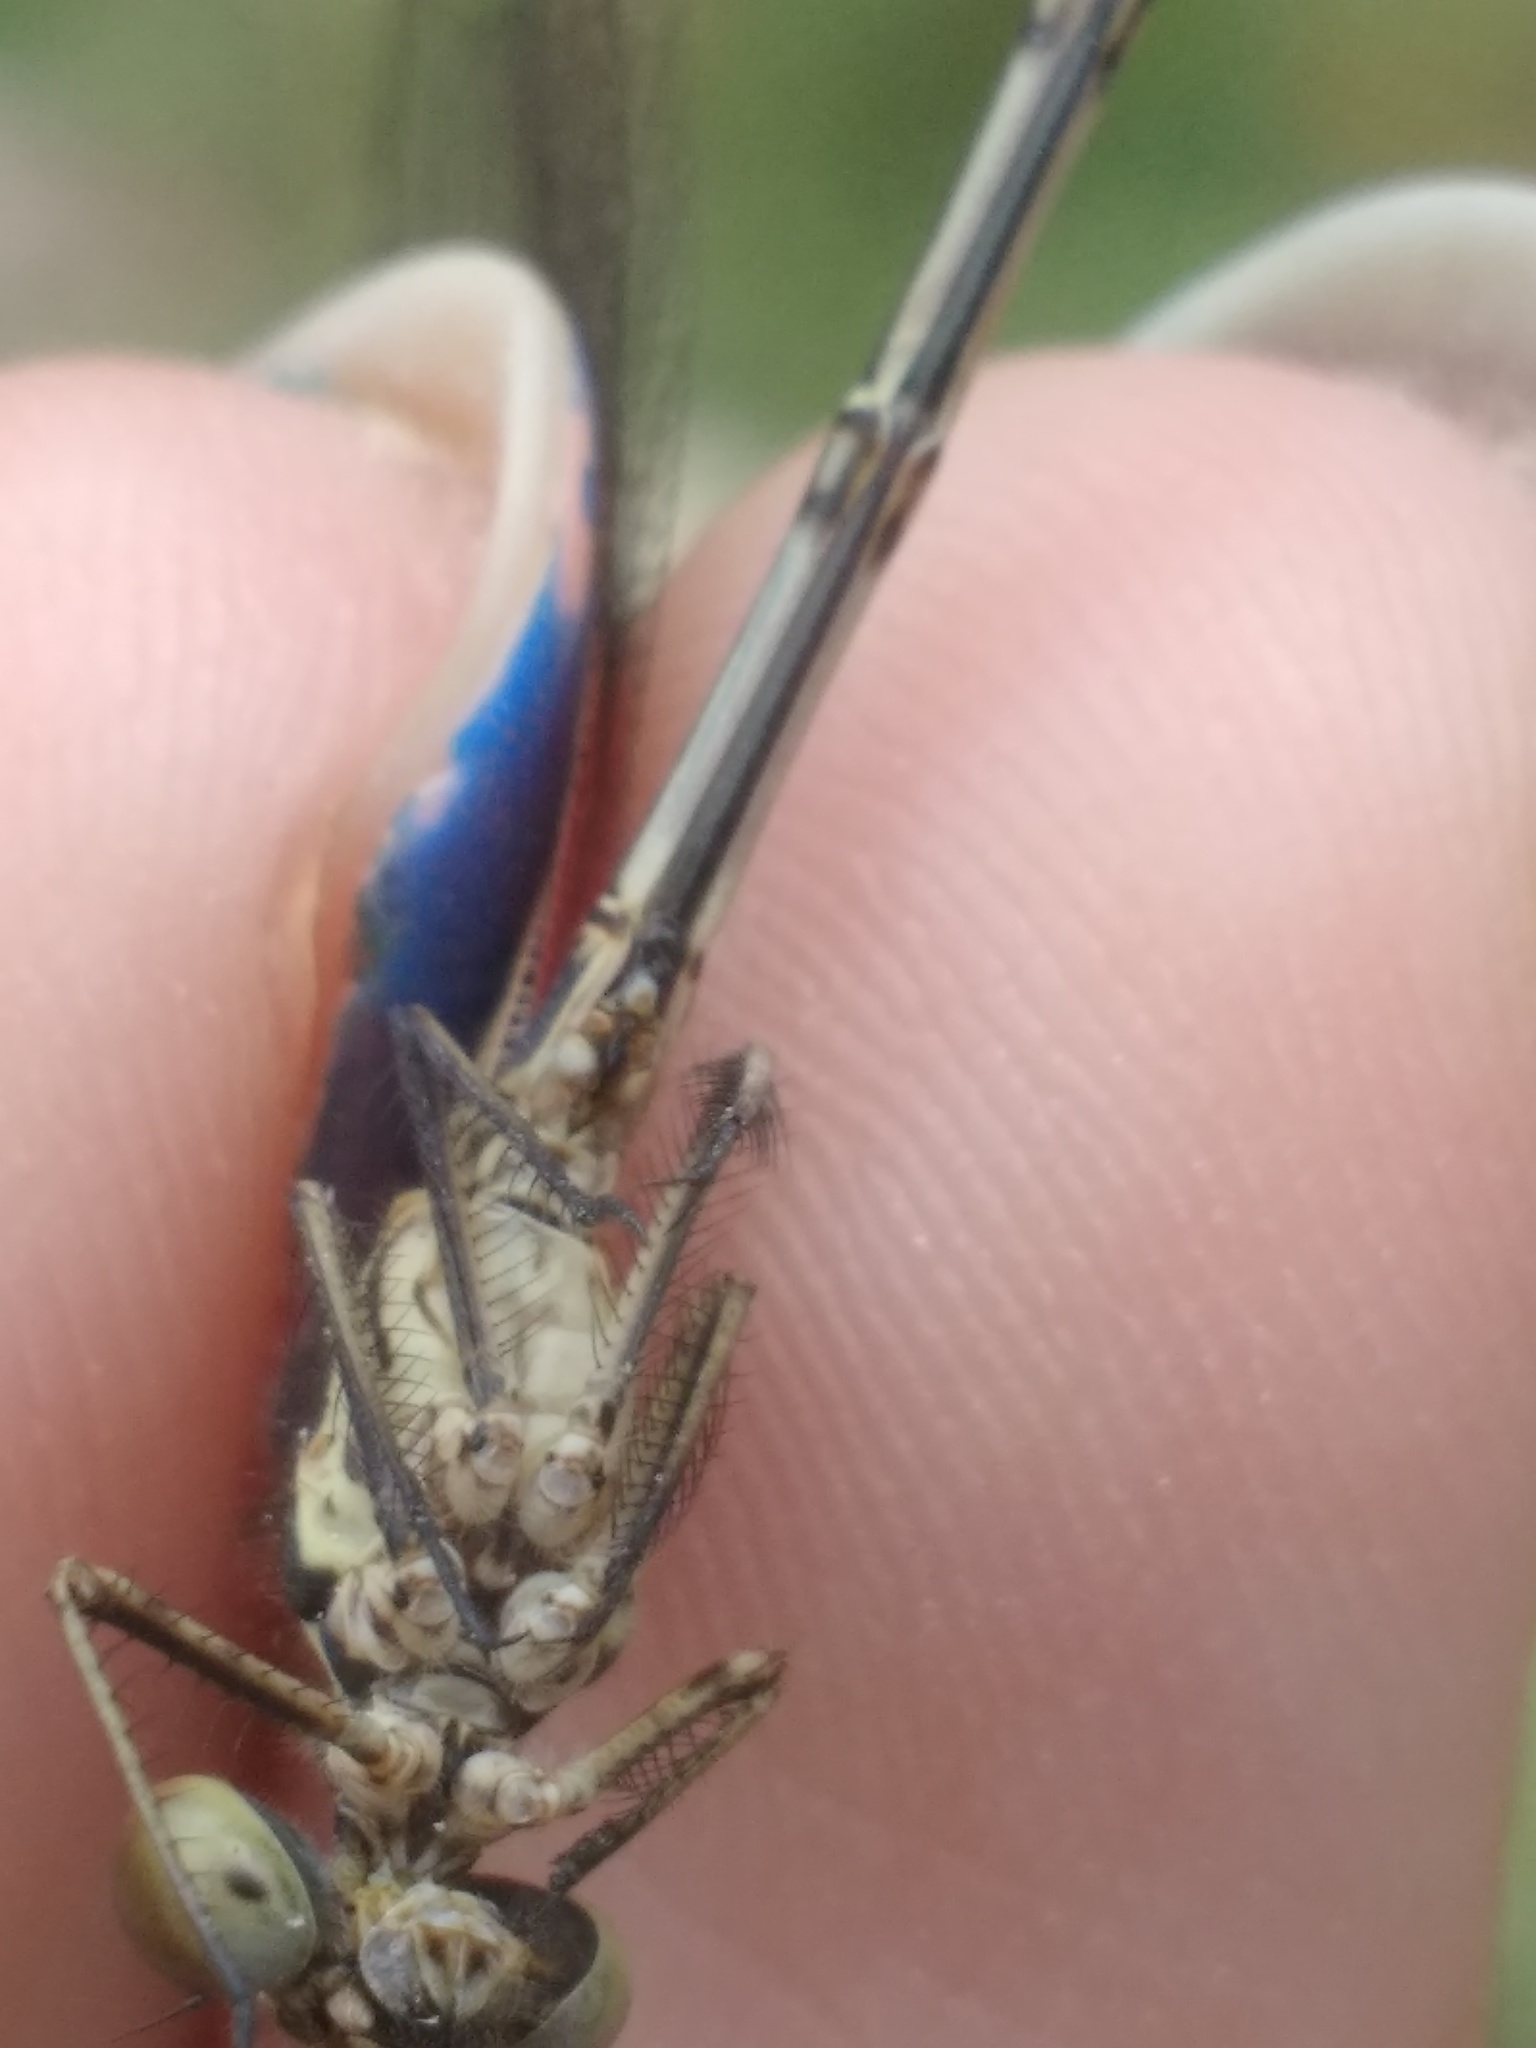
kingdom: Animalia
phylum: Arthropoda
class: Insecta
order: Odonata
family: Calopterygidae
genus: Hetaerina
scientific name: Hetaerina americana
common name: American rubyspot
